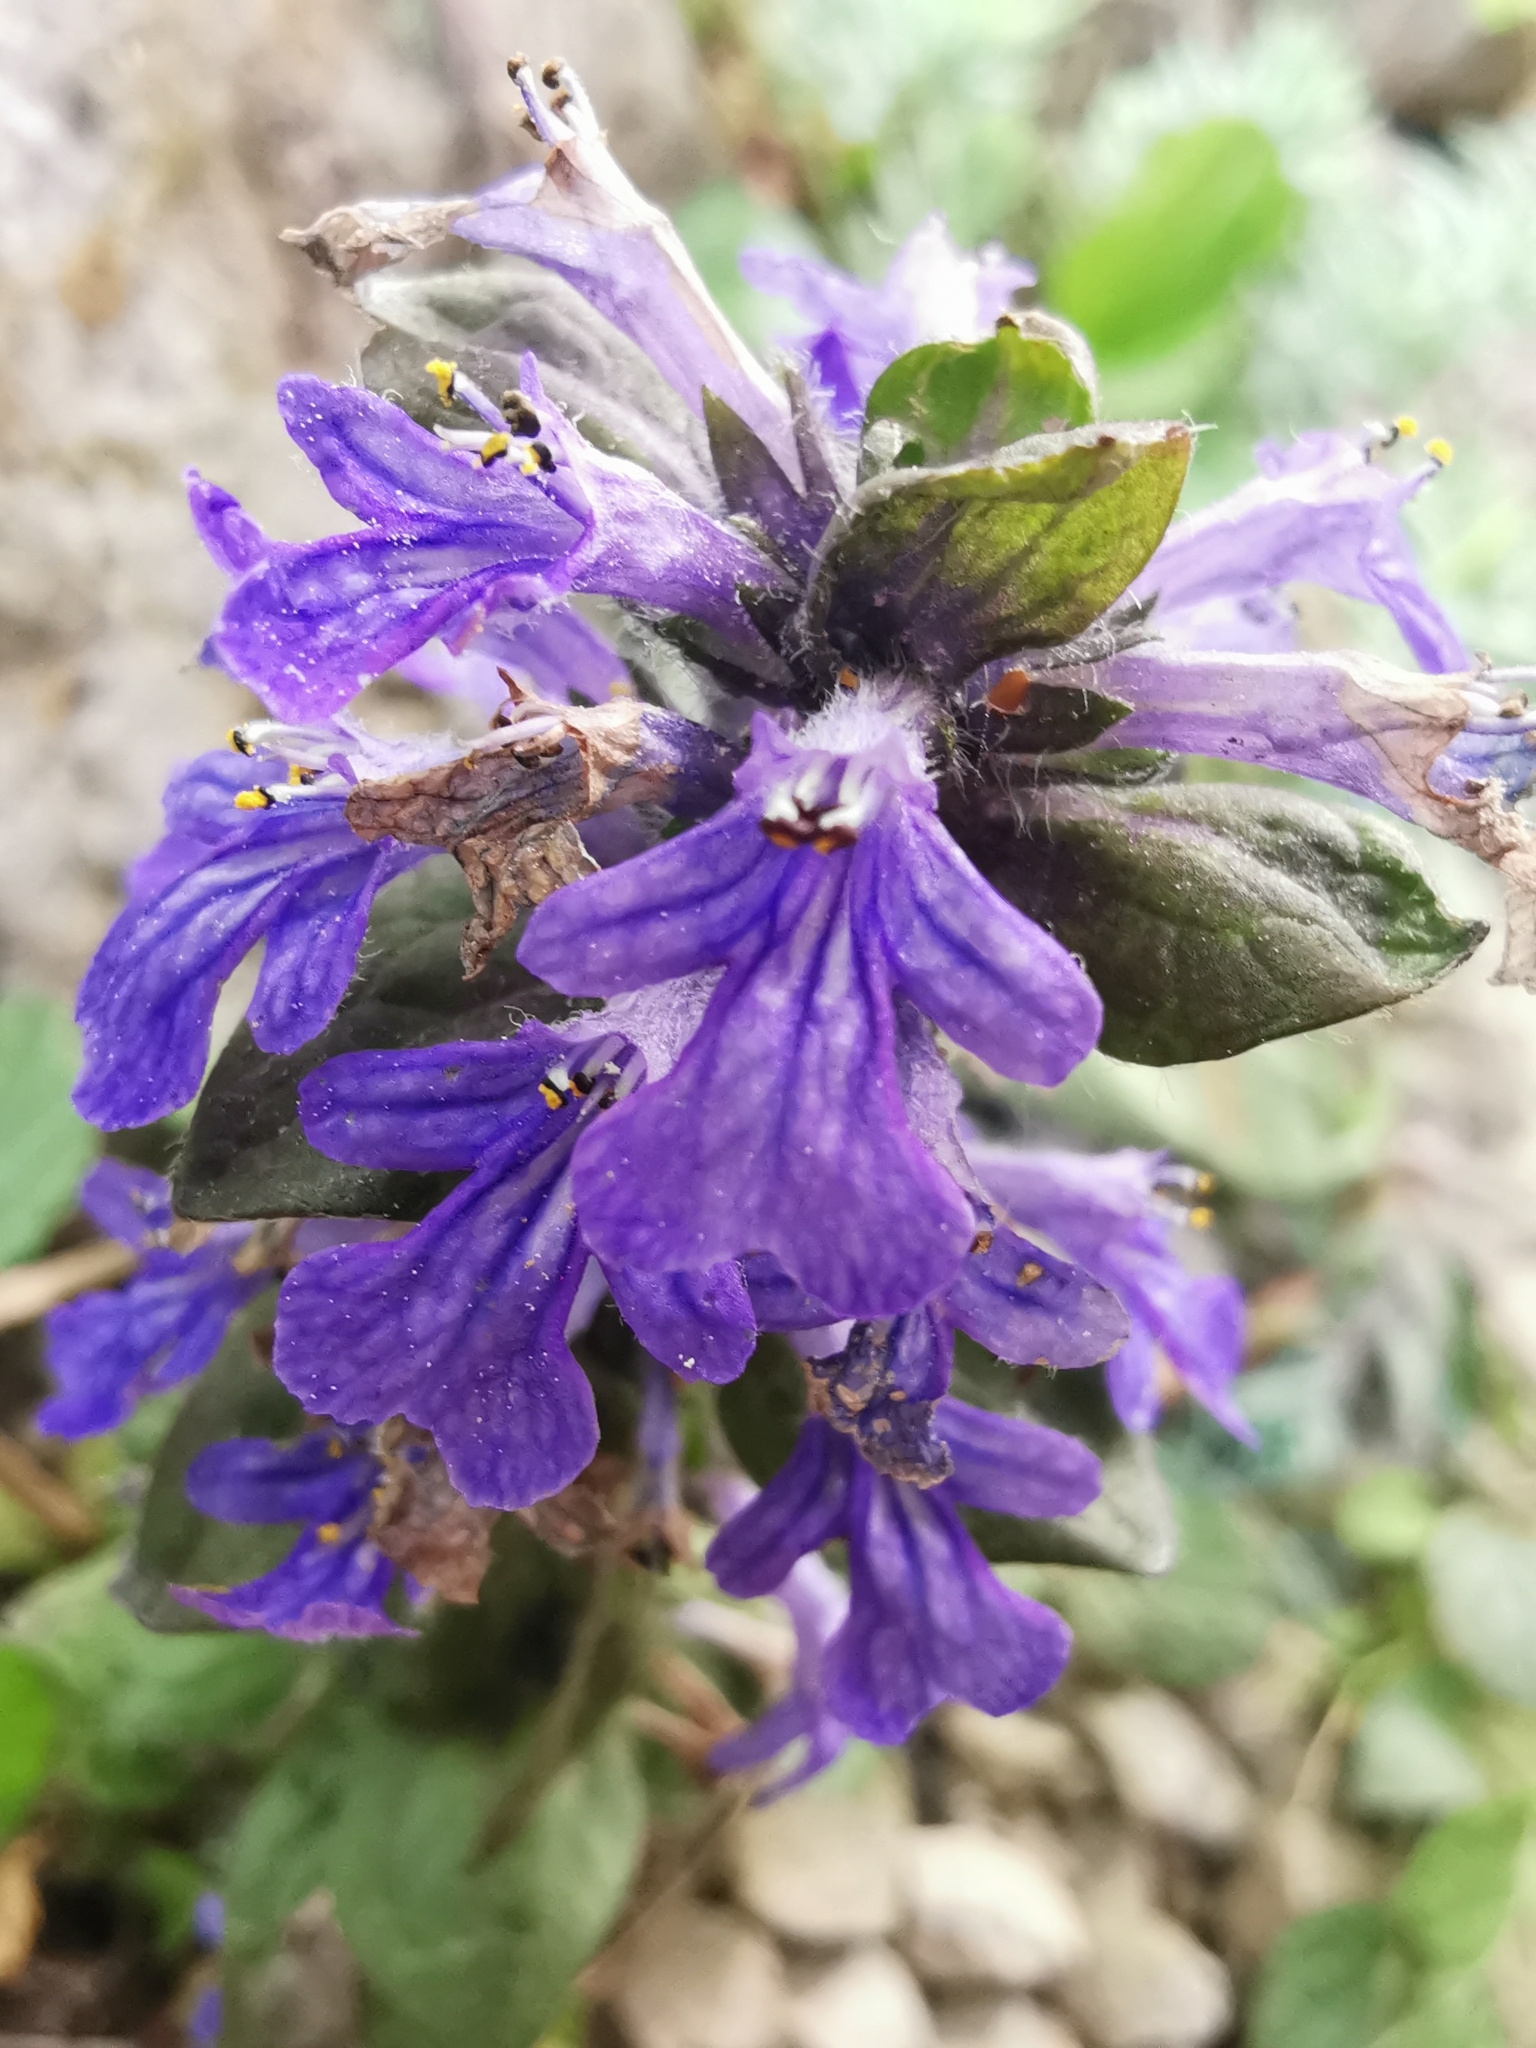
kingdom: Plantae
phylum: Tracheophyta
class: Magnoliopsida
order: Lamiales
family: Lamiaceae
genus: Ajuga
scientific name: Ajuga reptans
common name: Bugle
